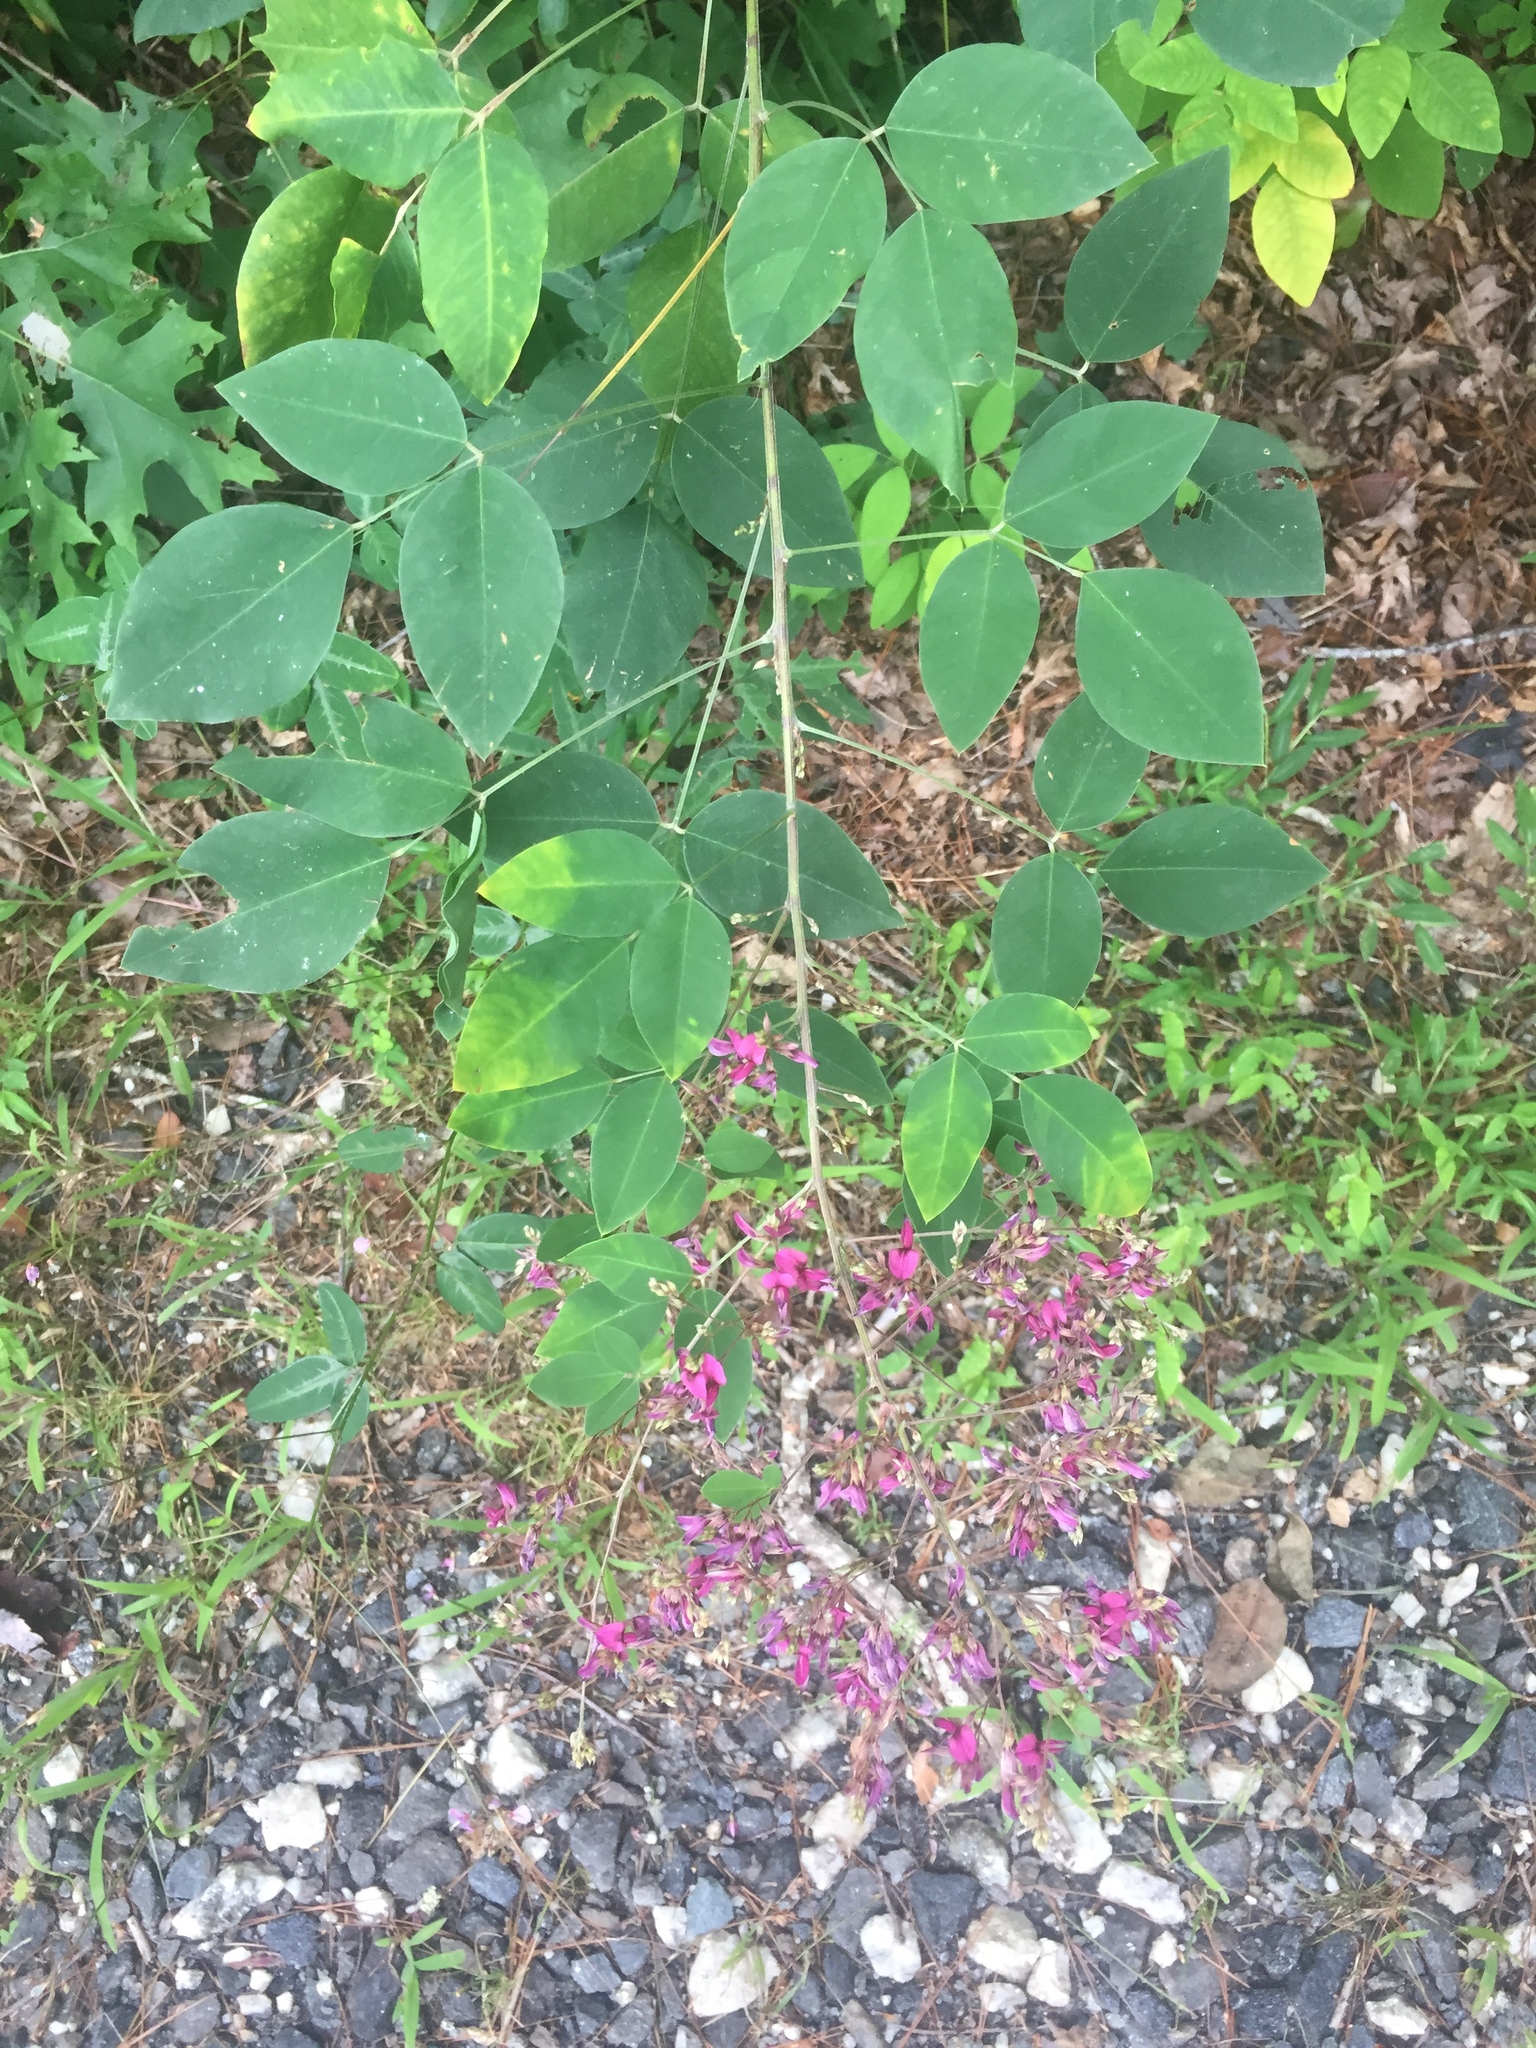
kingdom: Plantae
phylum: Tracheophyta
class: Magnoliopsida
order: Fabales
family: Fabaceae
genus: Lespedeza
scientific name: Lespedeza bicolor
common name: Shrub lespedeza
